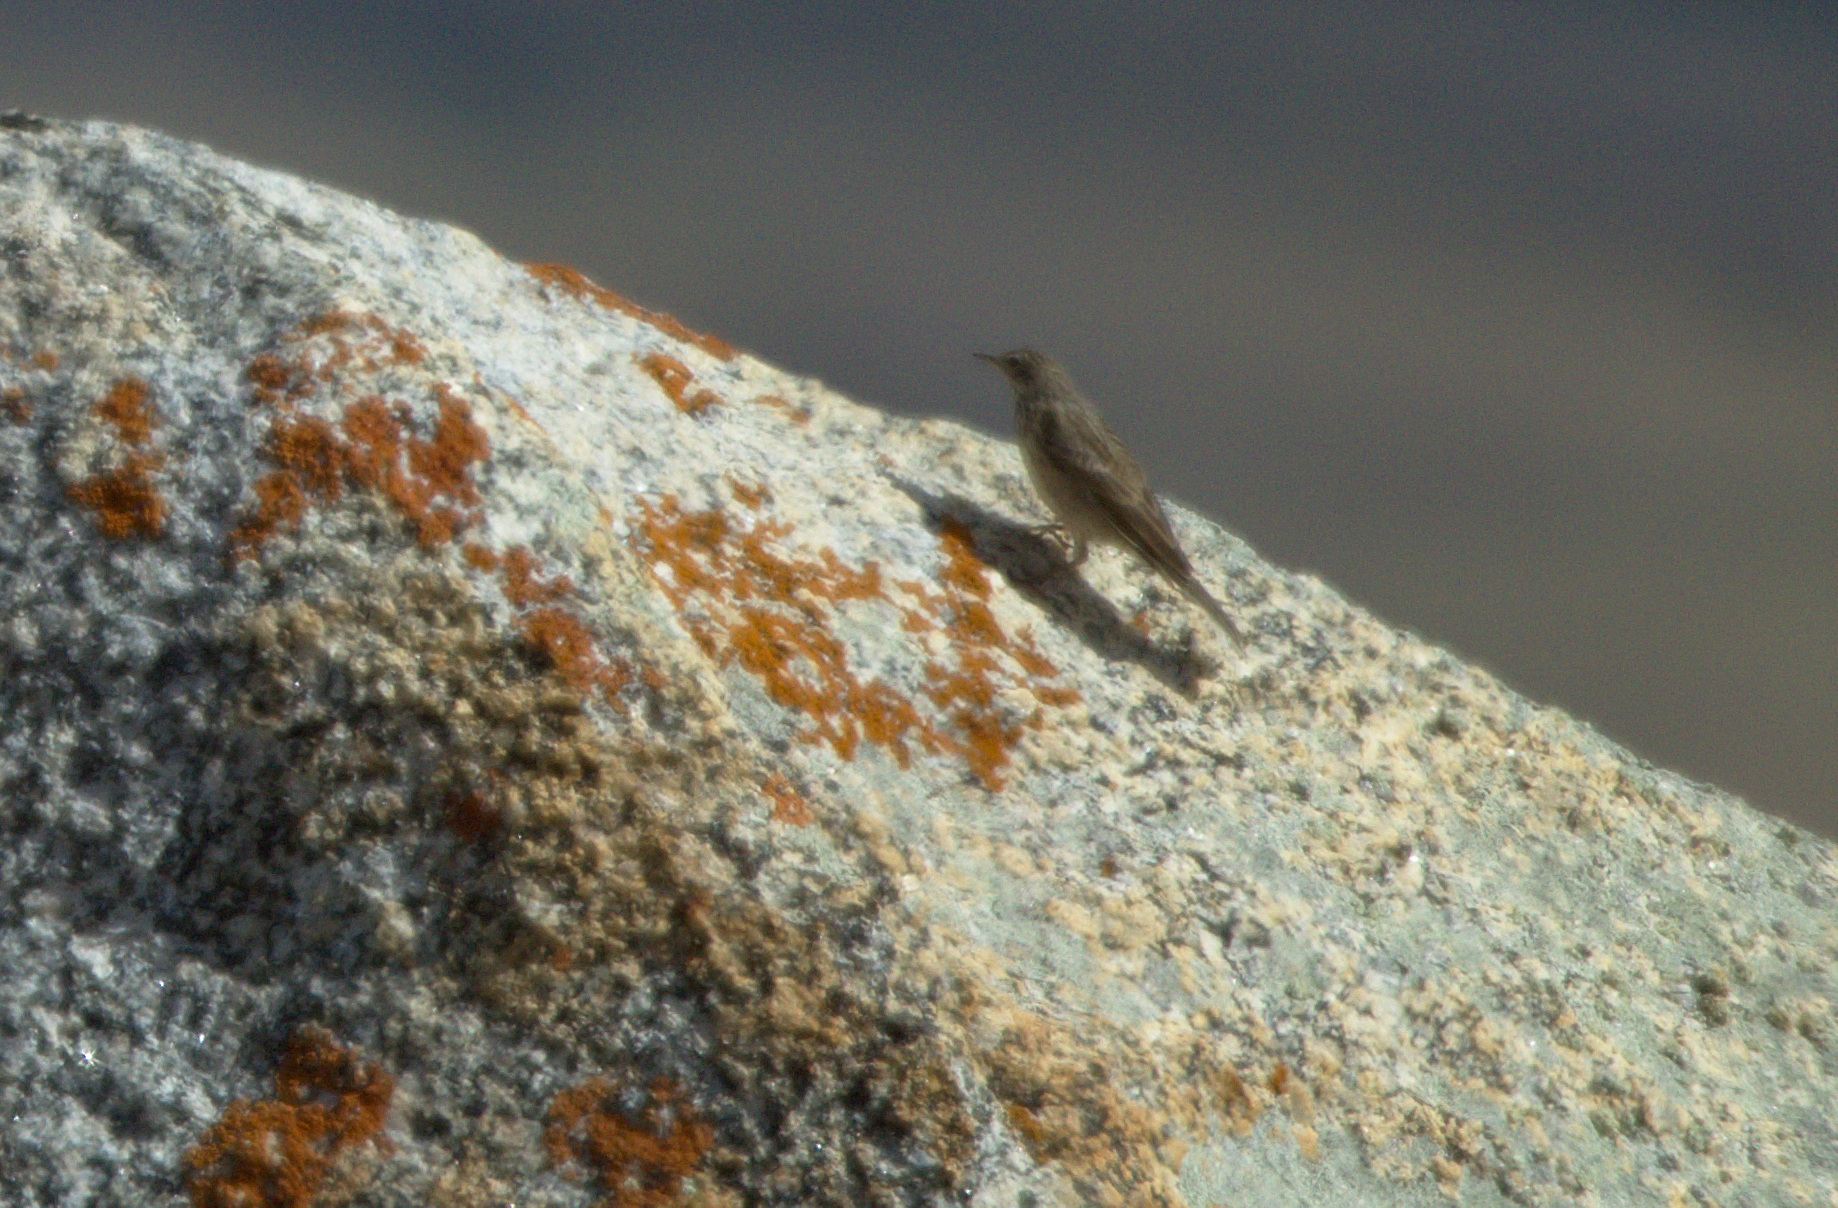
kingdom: Animalia
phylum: Chordata
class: Aves
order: Passeriformes
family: Motacillidae
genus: Anthus
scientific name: Anthus spinoletta
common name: Water pipit
